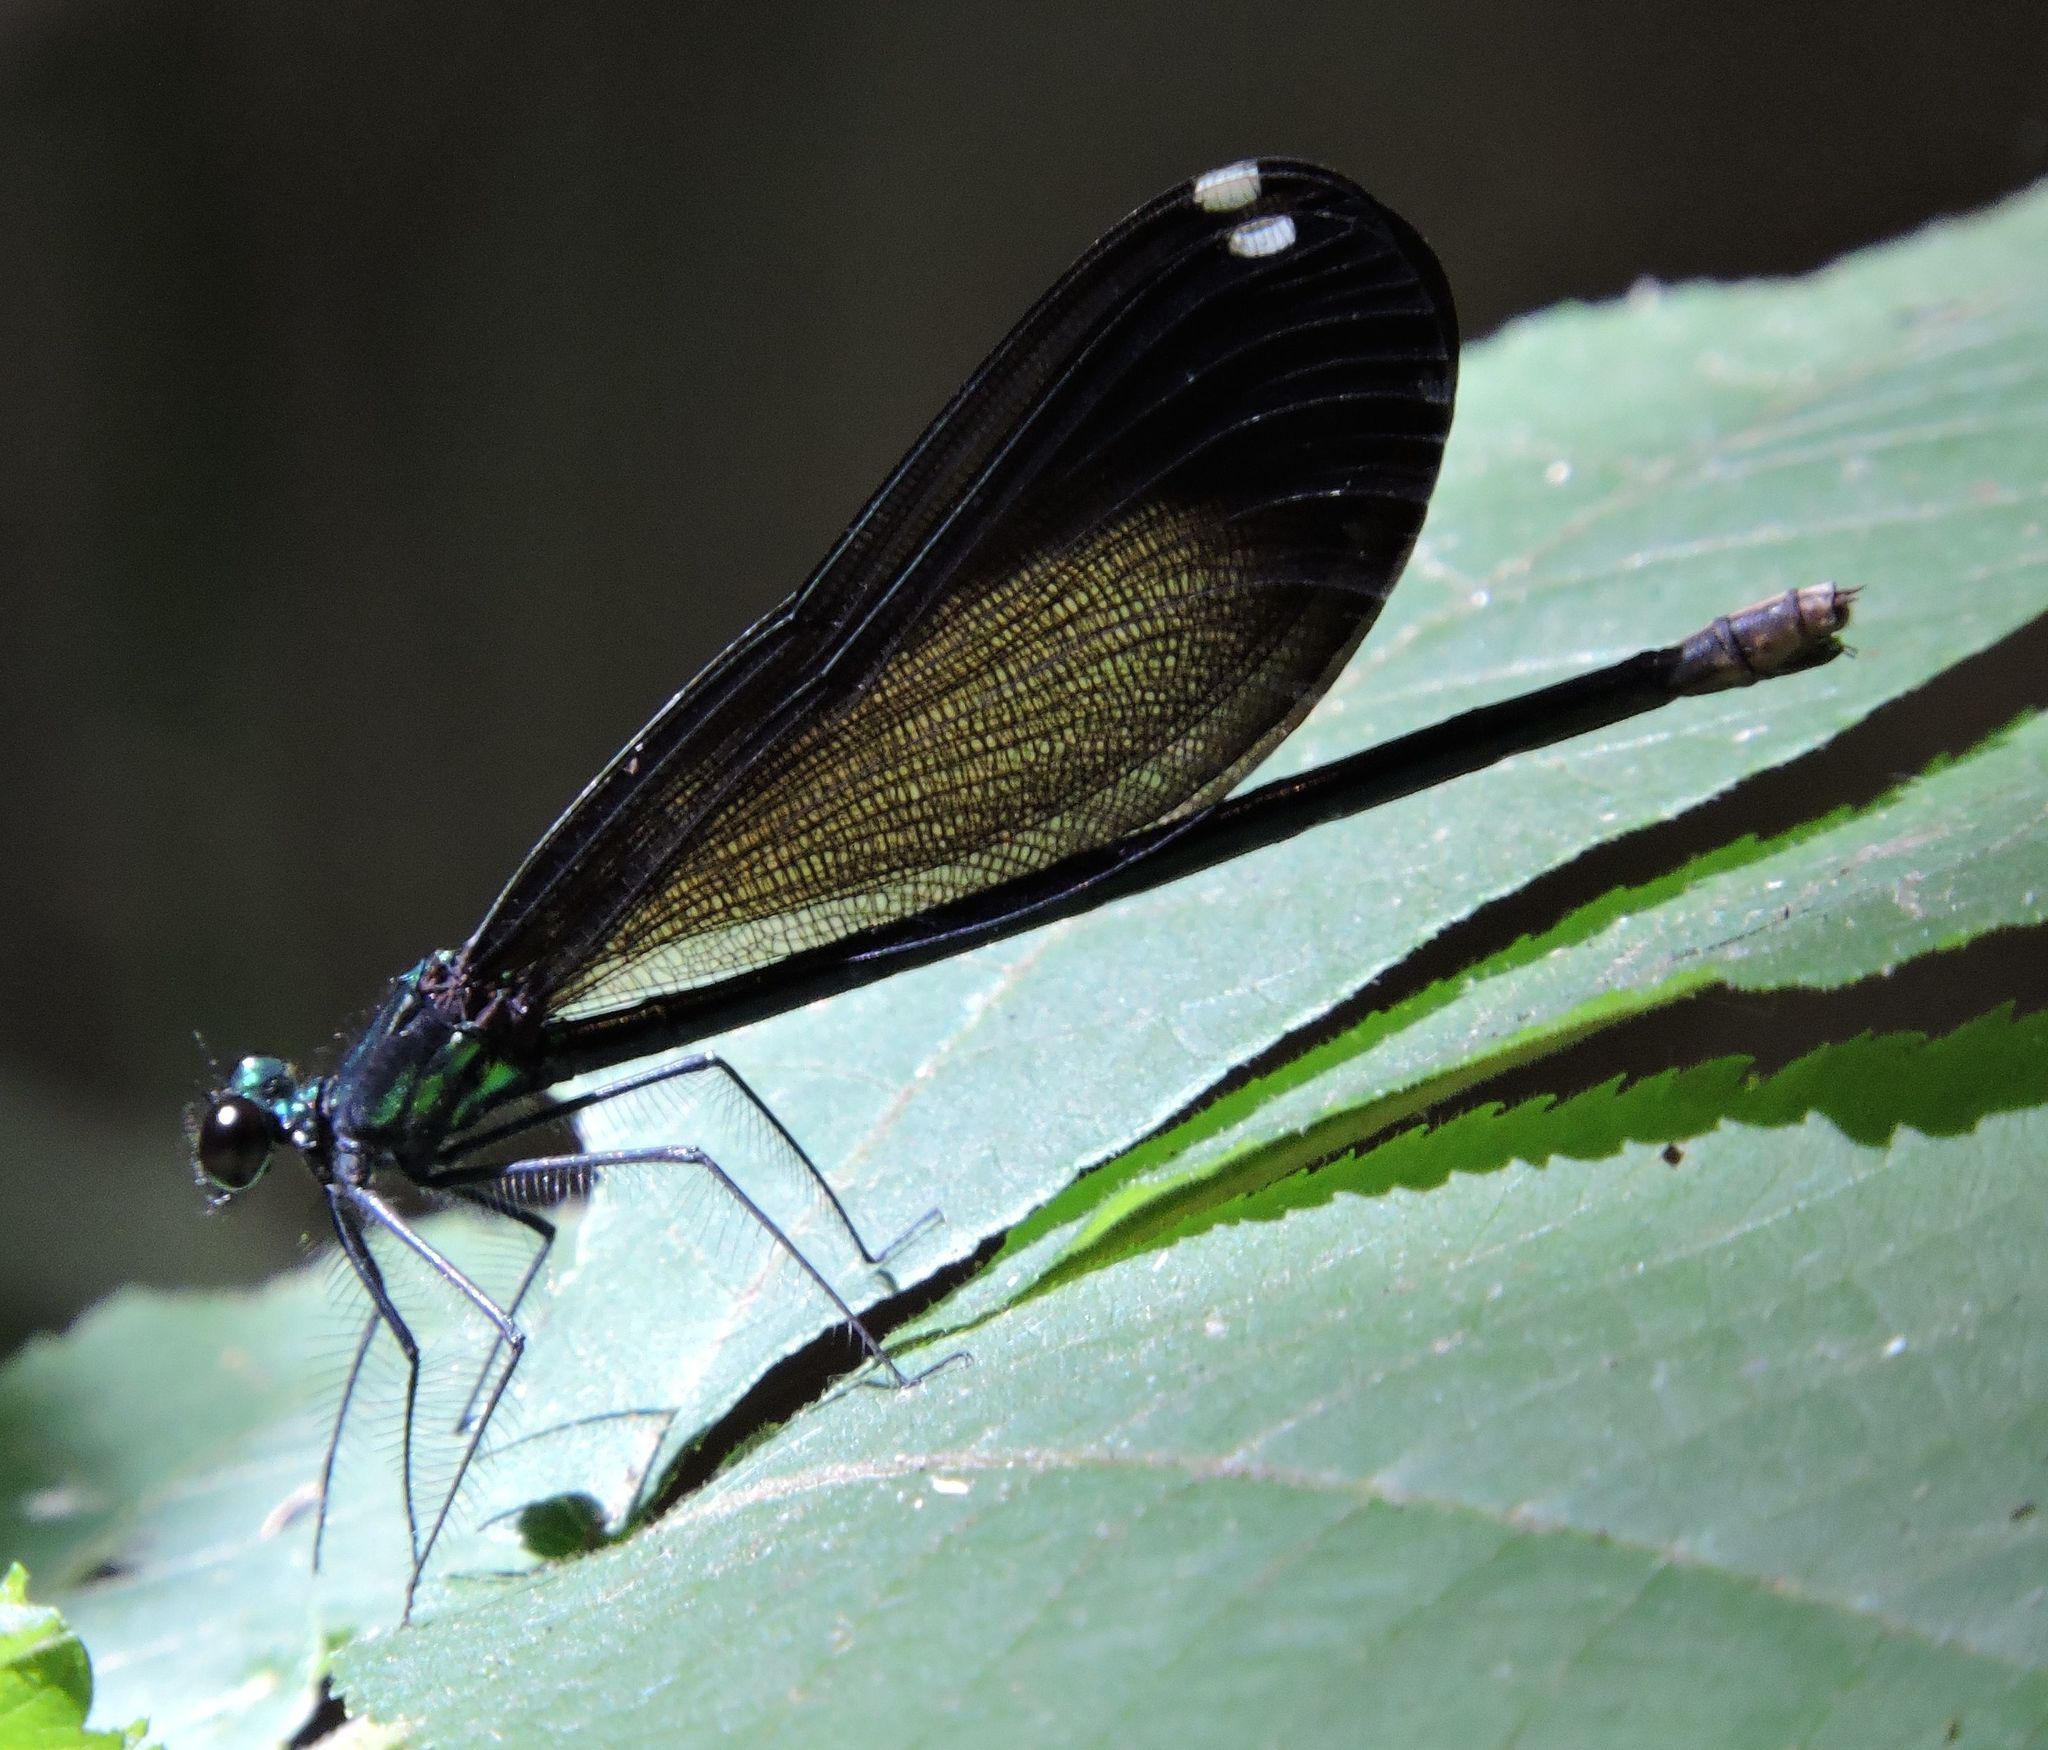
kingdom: Animalia
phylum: Arthropoda
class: Insecta
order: Odonata
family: Calopterygidae
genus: Calopteryx
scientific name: Calopteryx maculata
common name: Ebony jewelwing
